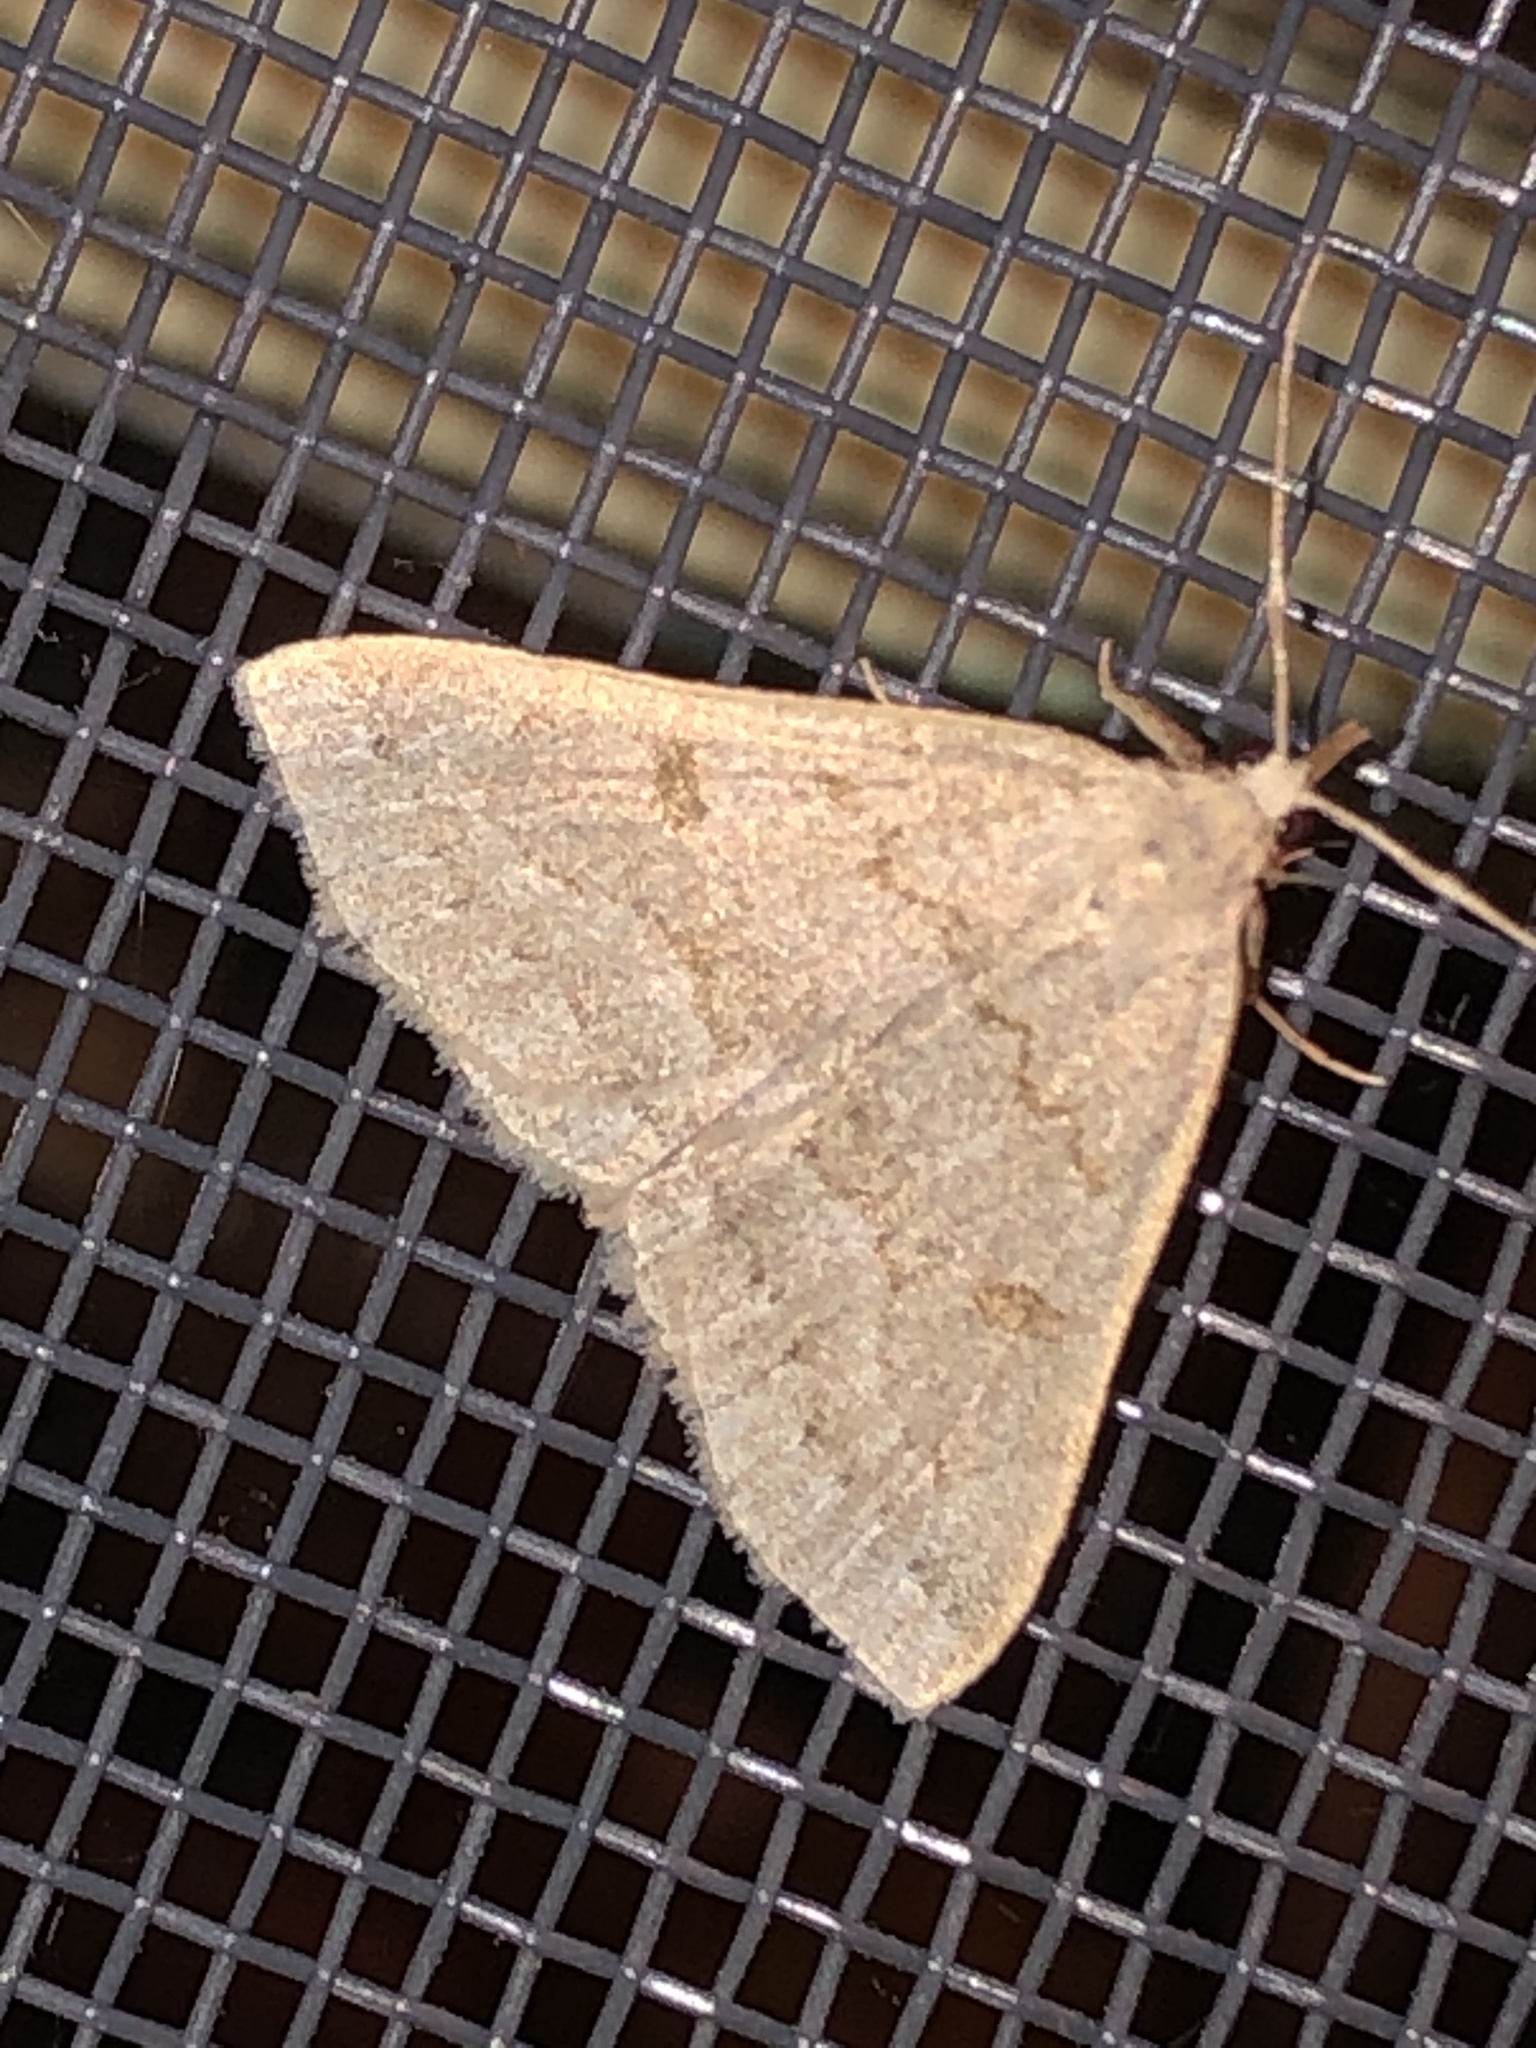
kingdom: Animalia
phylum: Arthropoda
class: Insecta
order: Lepidoptera
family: Erebidae
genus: Macrochilo
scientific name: Macrochilo morbidalis
